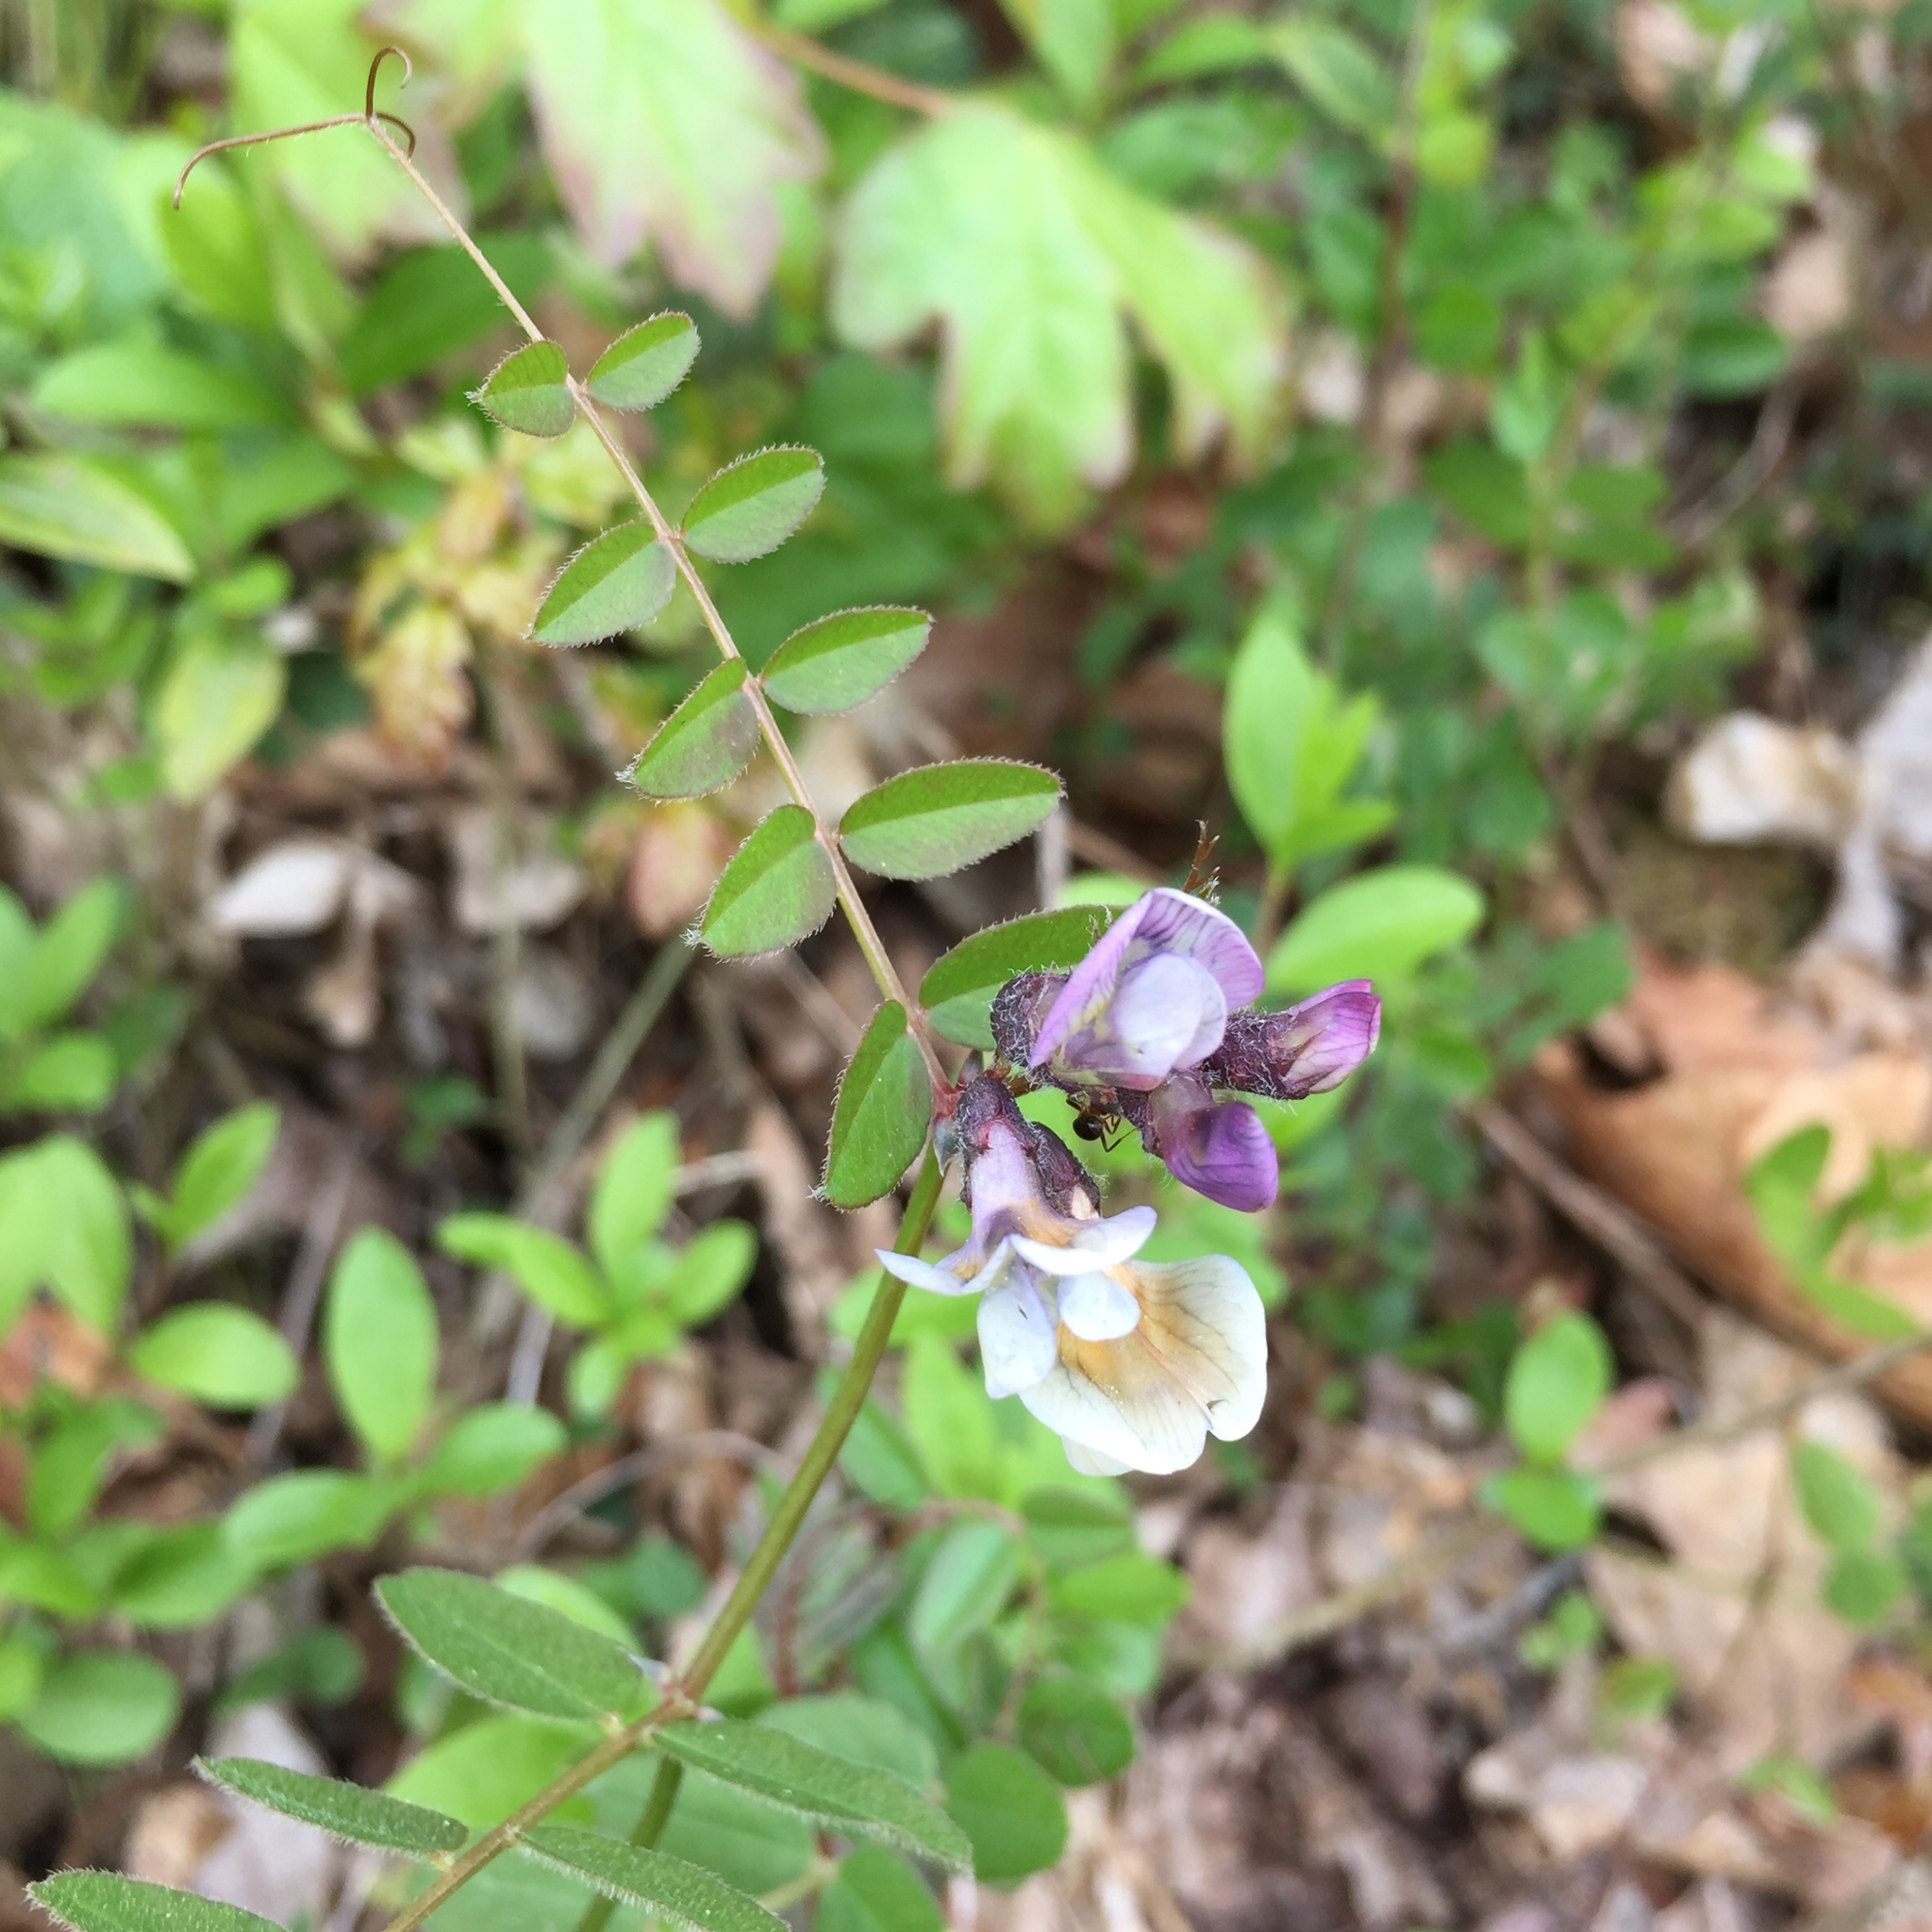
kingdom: Plantae
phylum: Tracheophyta
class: Magnoliopsida
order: Fabales
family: Fabaceae
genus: Vicia
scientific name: Vicia sepium
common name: Bush vetch
